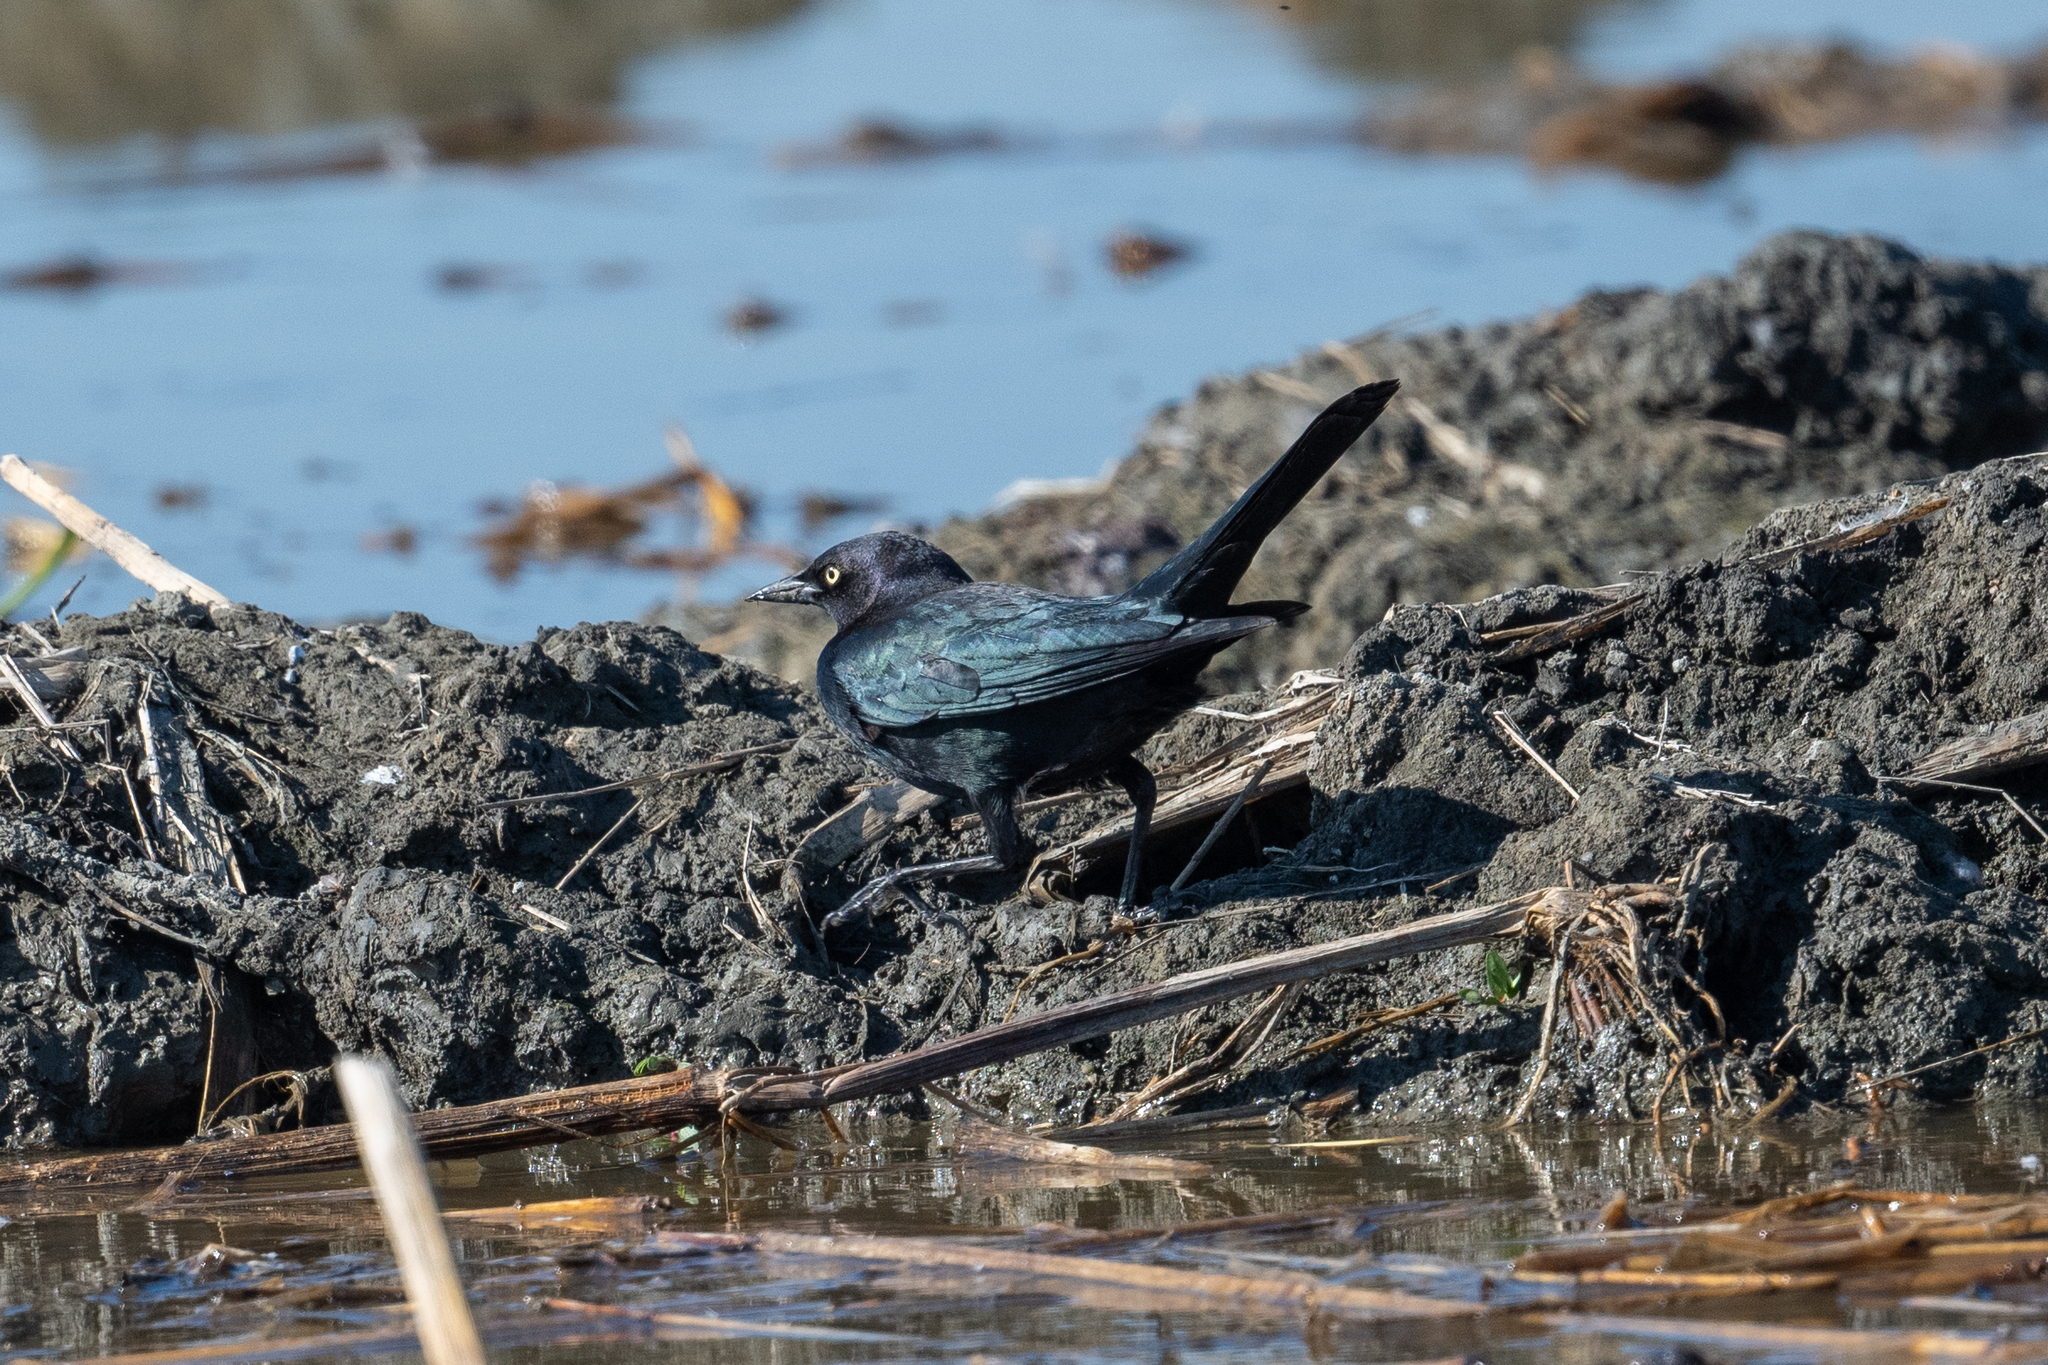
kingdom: Animalia
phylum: Chordata
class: Aves
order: Passeriformes
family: Icteridae
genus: Euphagus
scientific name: Euphagus cyanocephalus
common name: Brewer's blackbird
